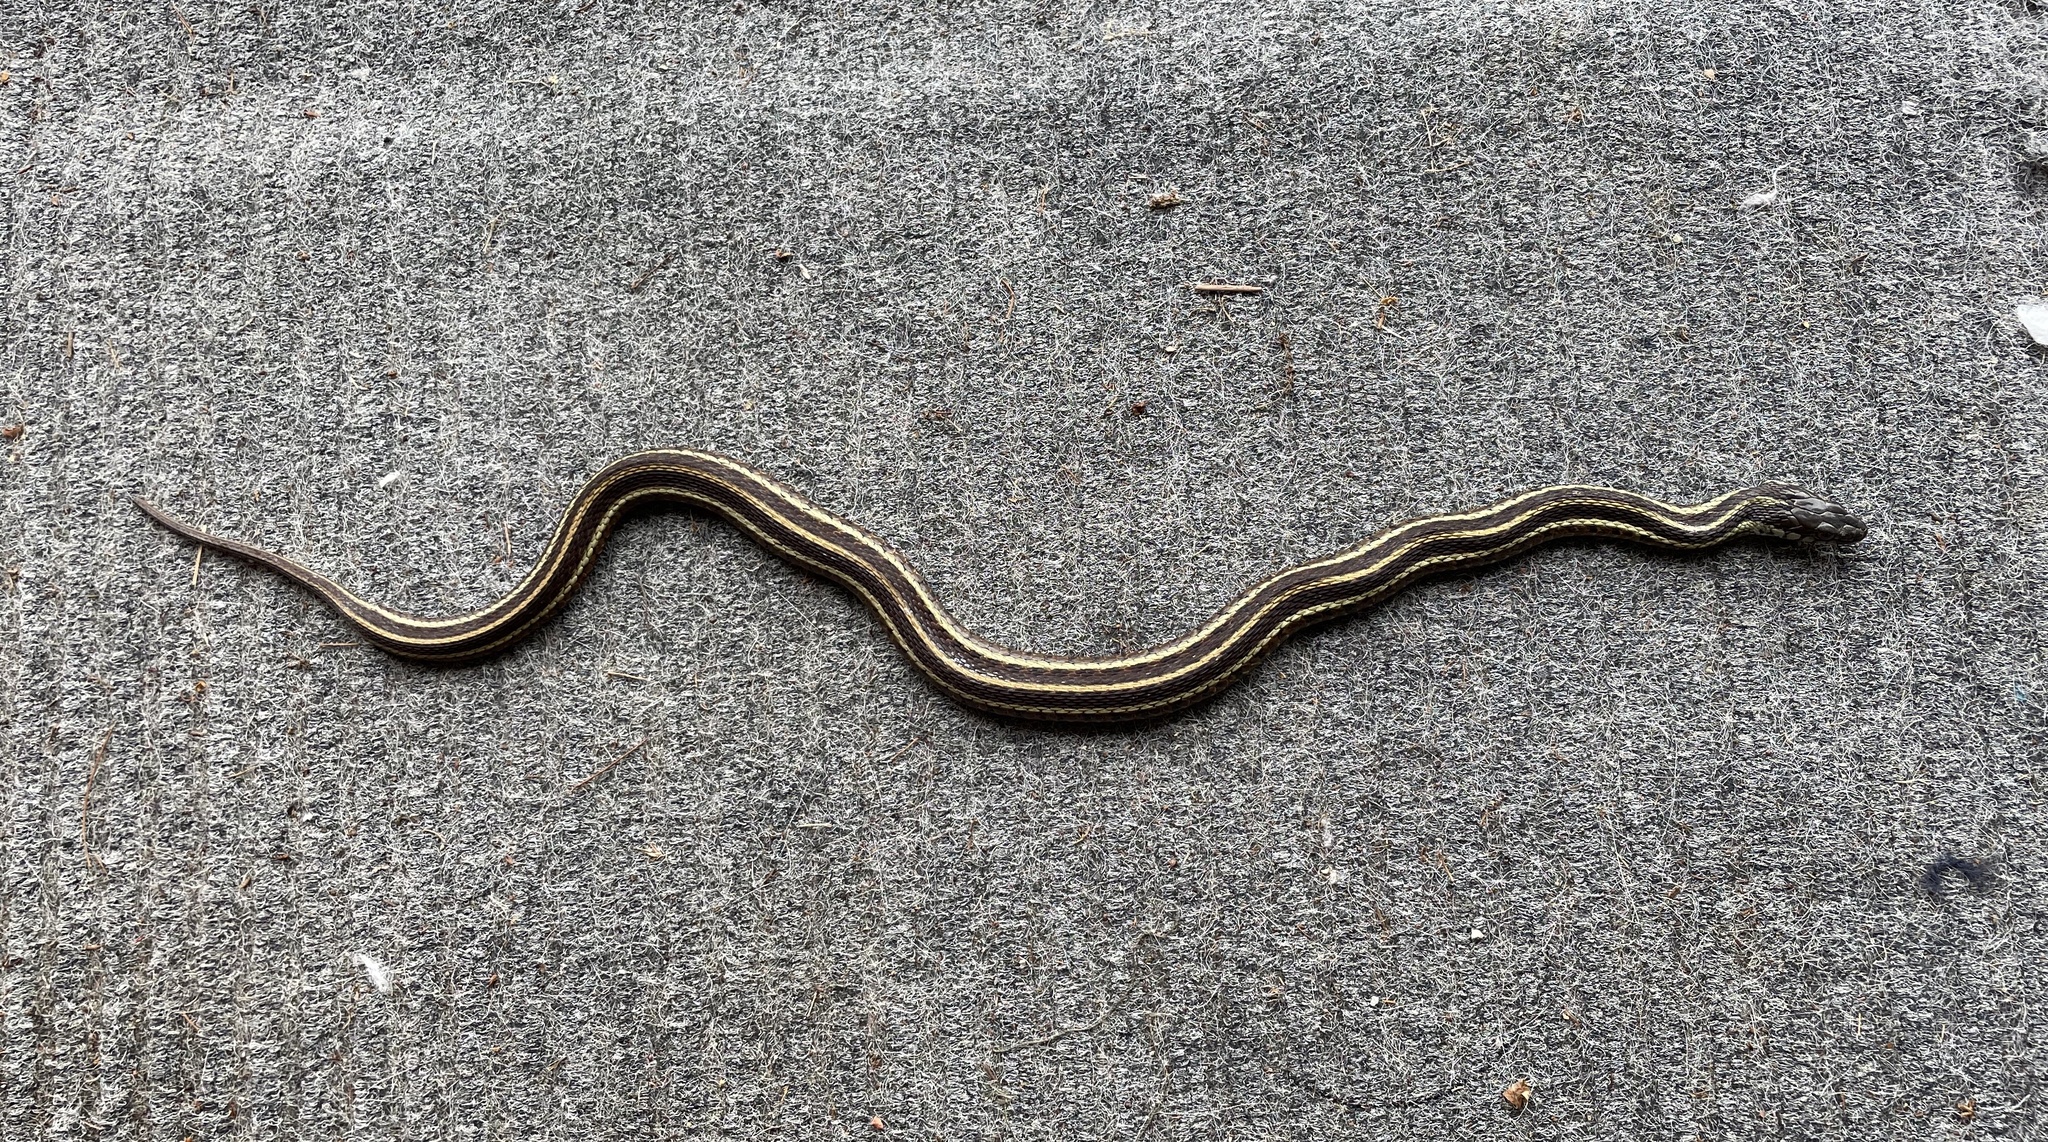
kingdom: Animalia
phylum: Chordata
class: Squamata
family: Colubridae
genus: Thamnophis
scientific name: Thamnophis sirtalis
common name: Common garter snake
